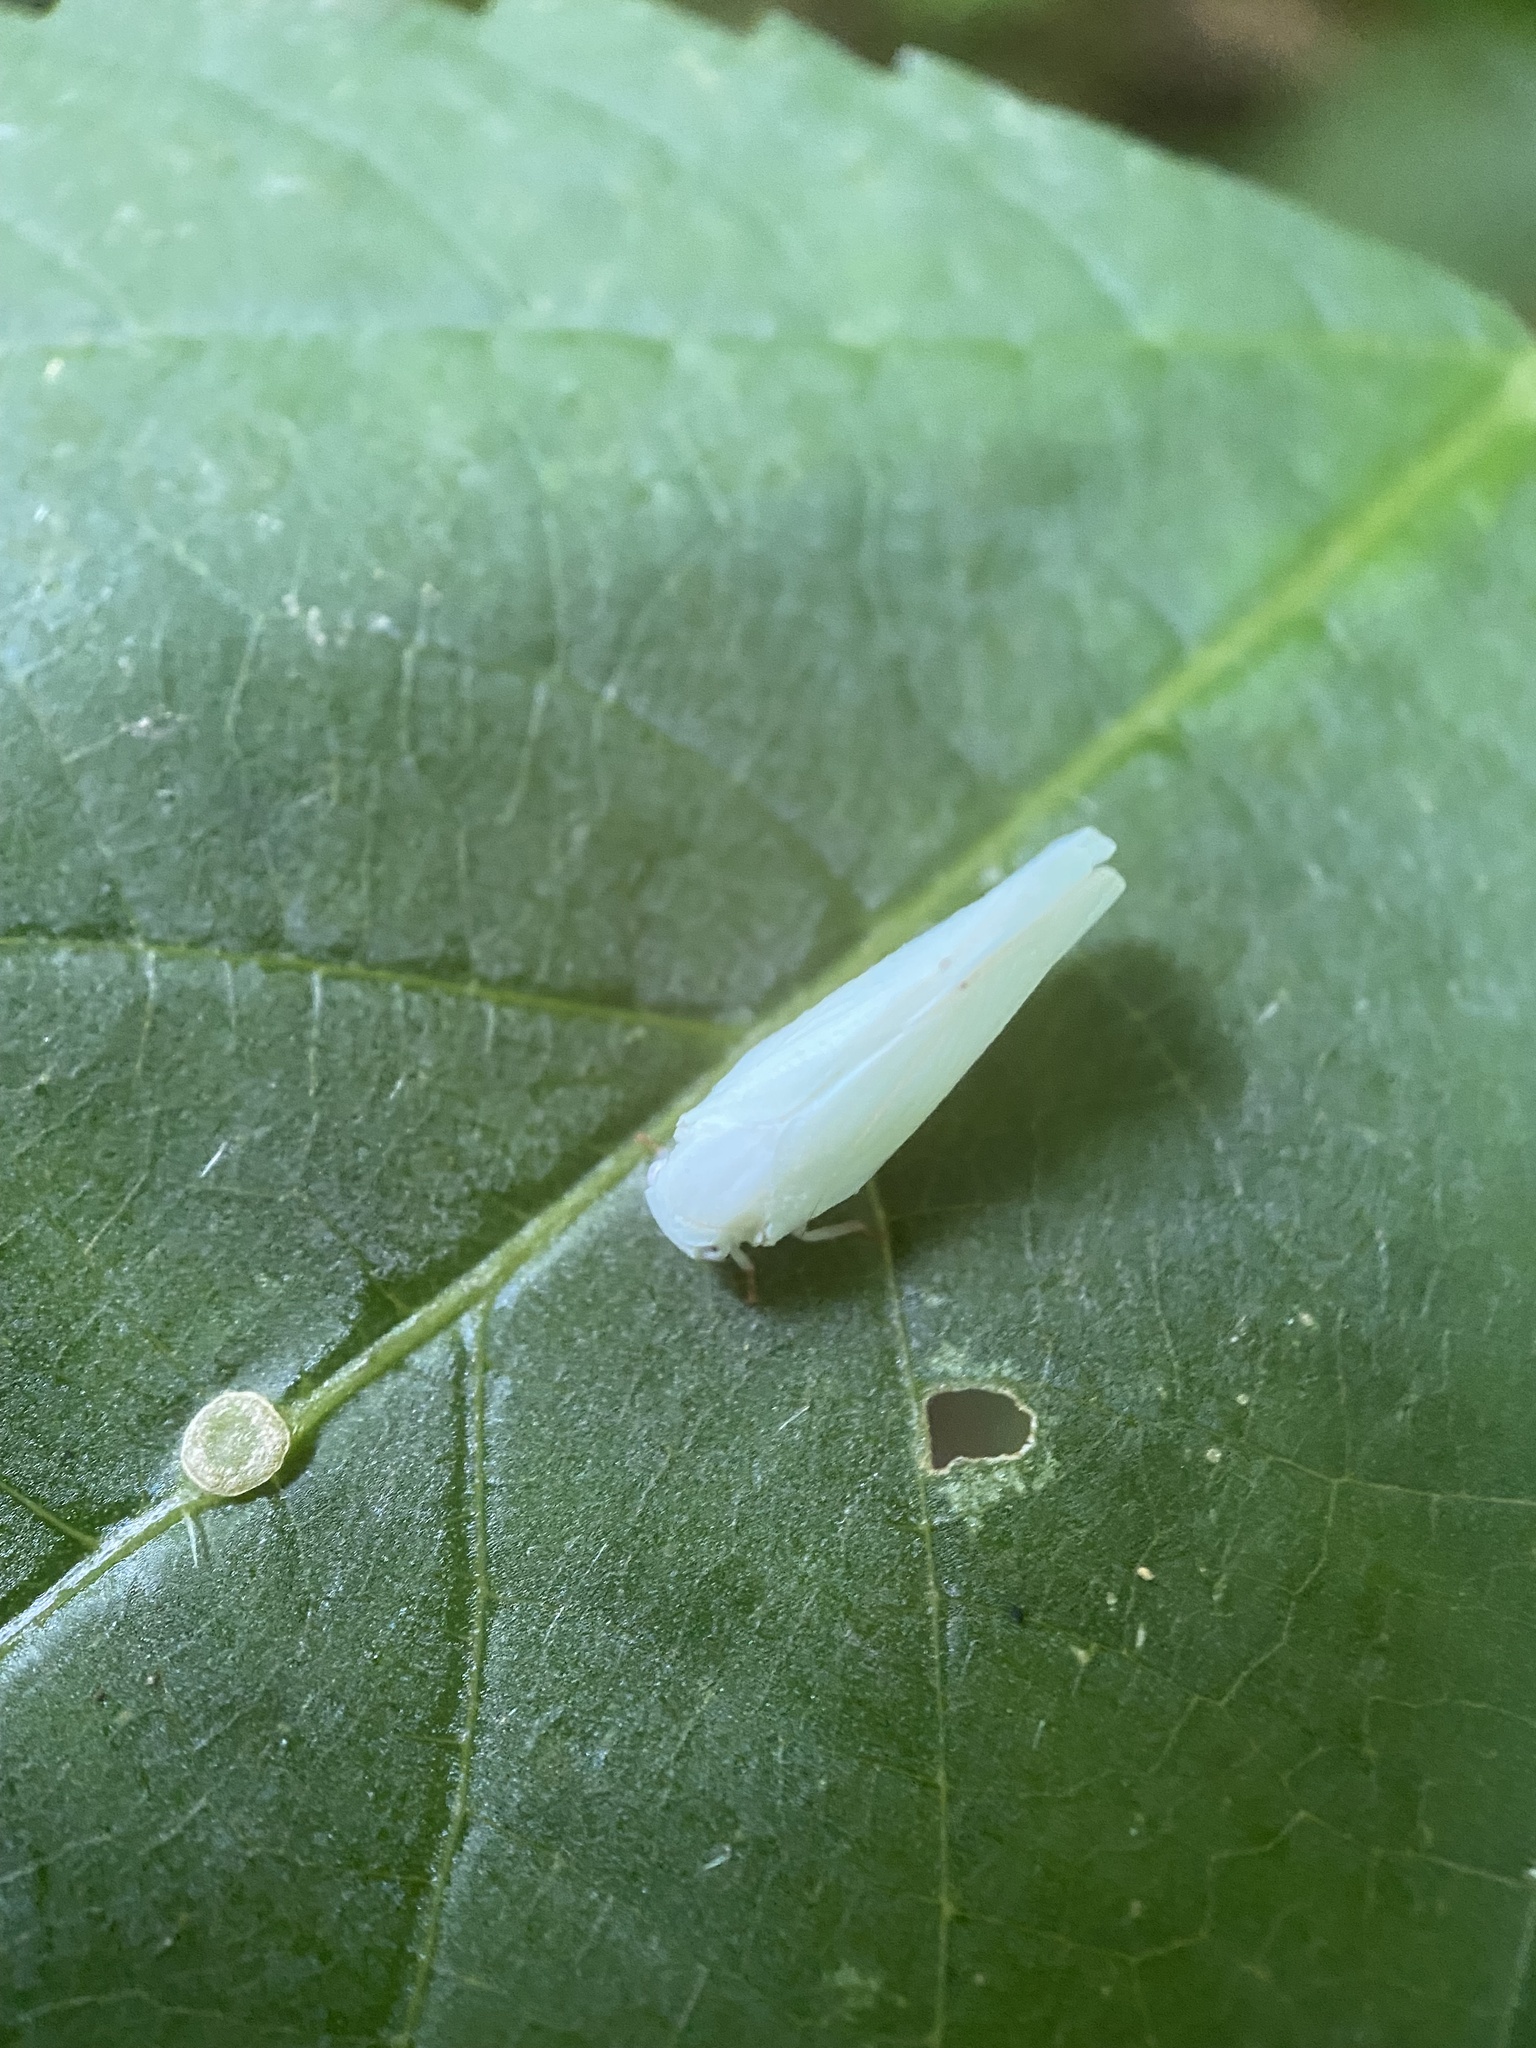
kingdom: Animalia
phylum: Arthropoda
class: Insecta
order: Hemiptera
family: Flatidae
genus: Flatormenis
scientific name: Flatormenis proxima
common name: Northern flatid planthopper
